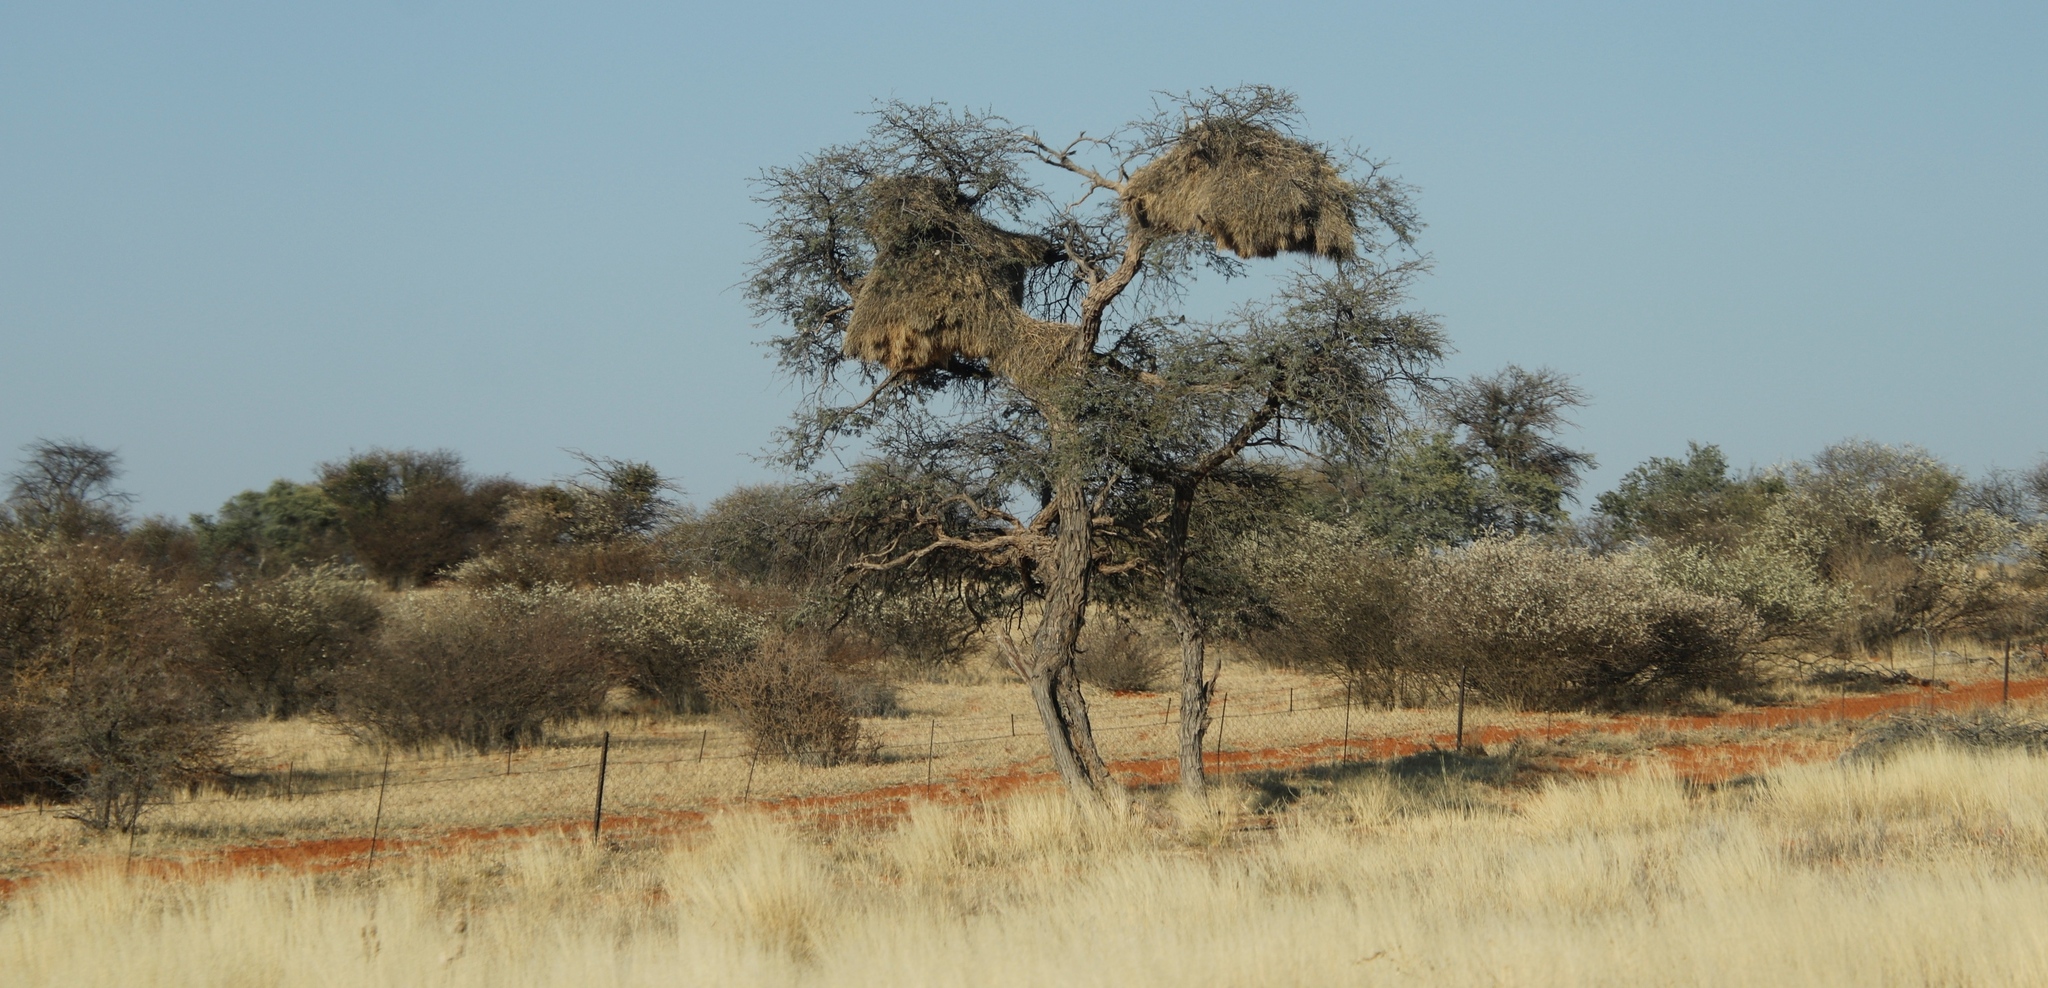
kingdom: Animalia
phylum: Chordata
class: Aves
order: Passeriformes
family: Passeridae
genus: Philetairus
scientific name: Philetairus socius
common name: Sociable weaver
